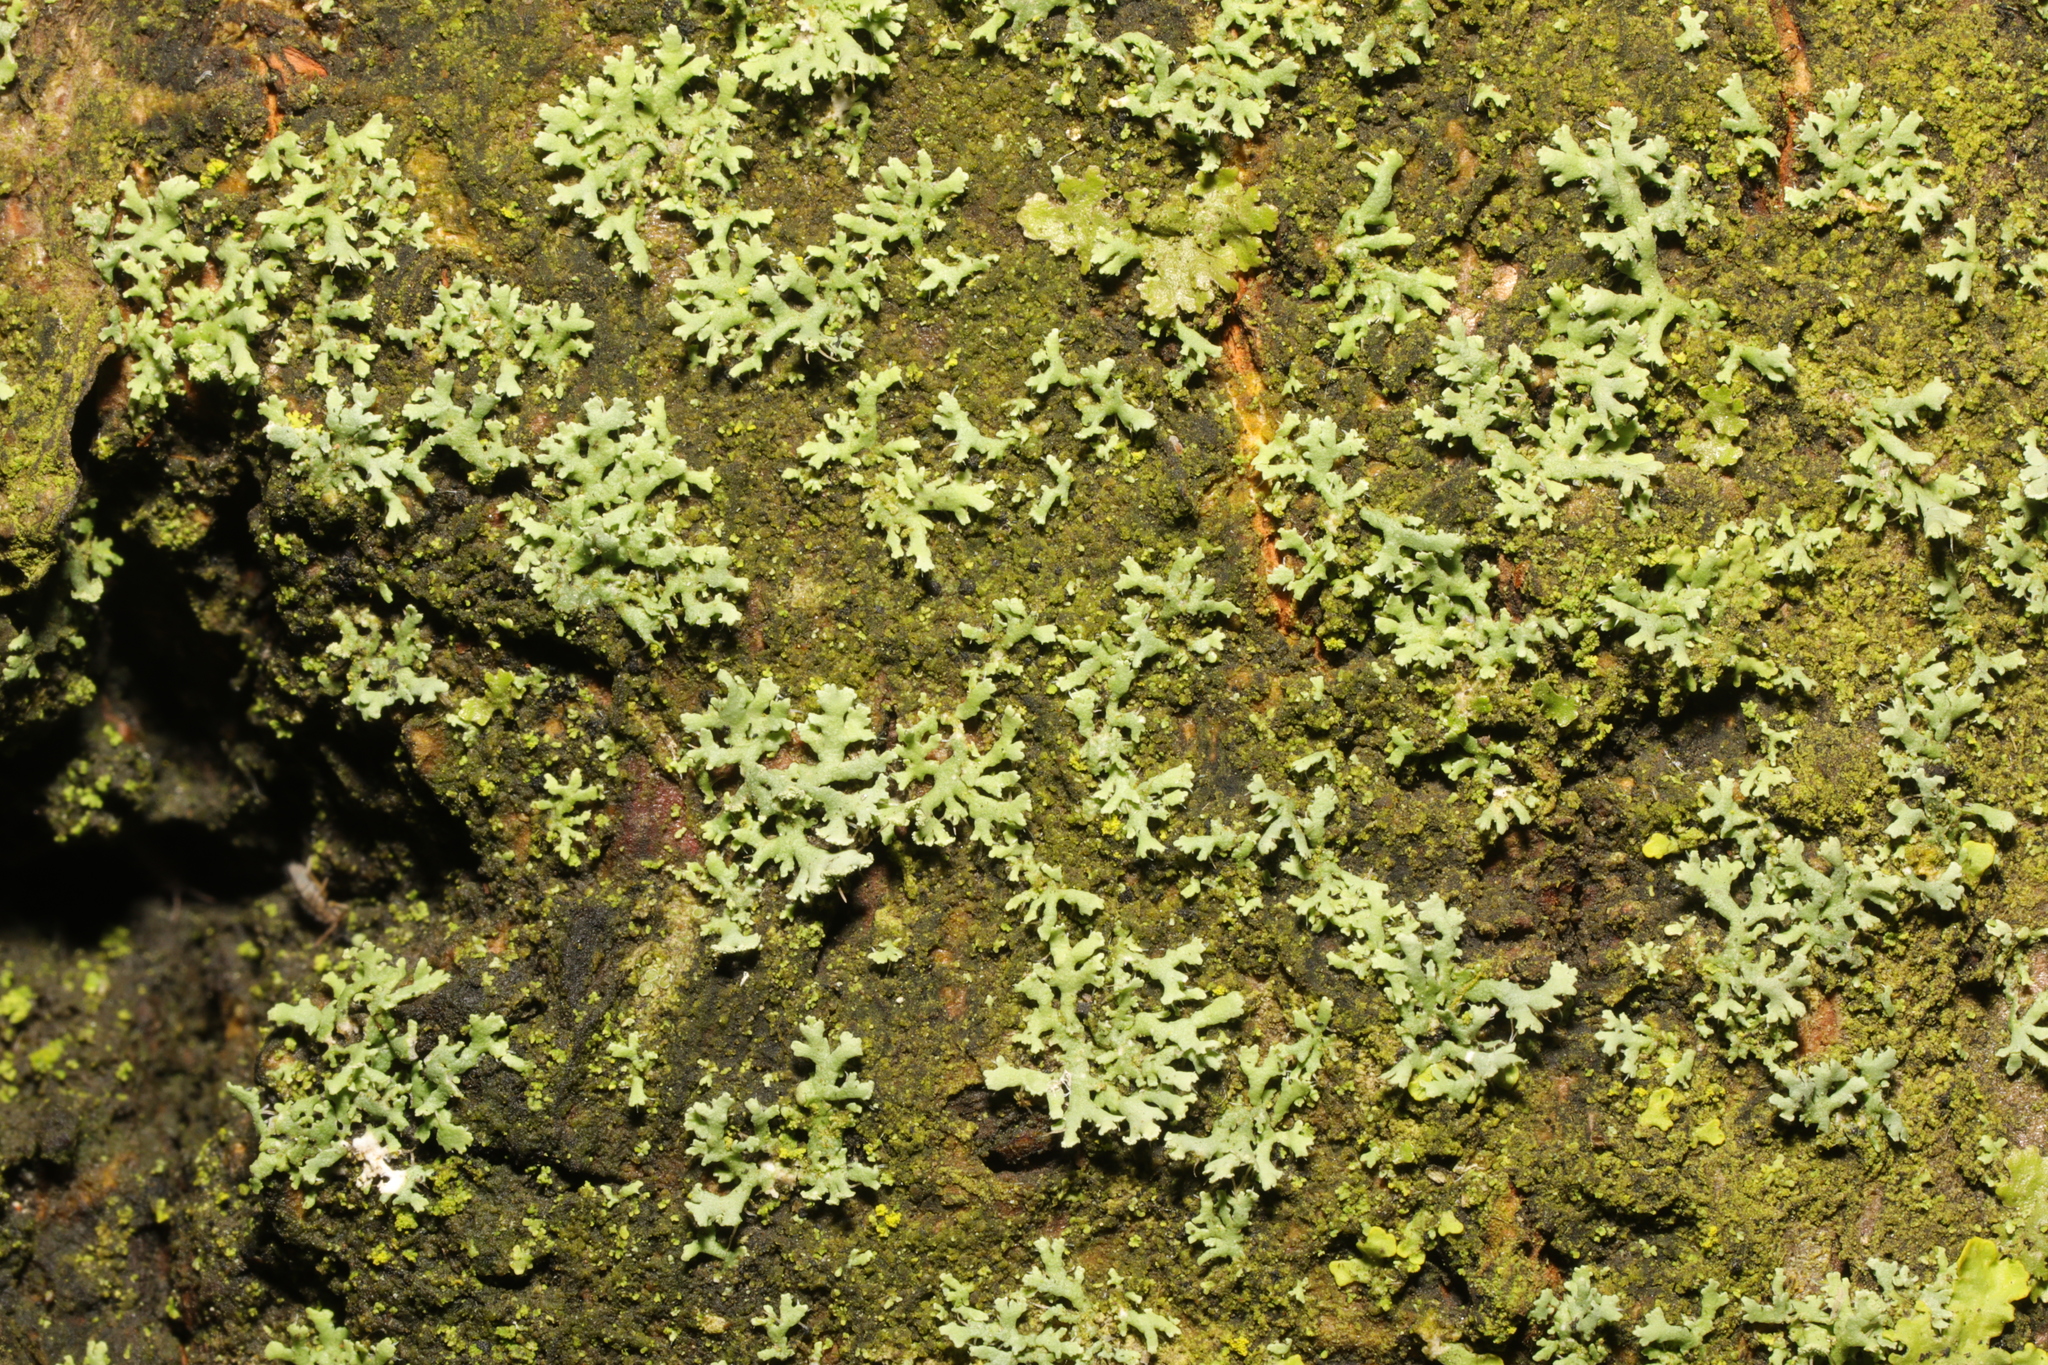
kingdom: Fungi
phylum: Ascomycota
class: Lecanoromycetes
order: Caliciales
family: Physciaceae
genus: Physcia
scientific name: Physcia tenella
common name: Fringed rosette lichen
